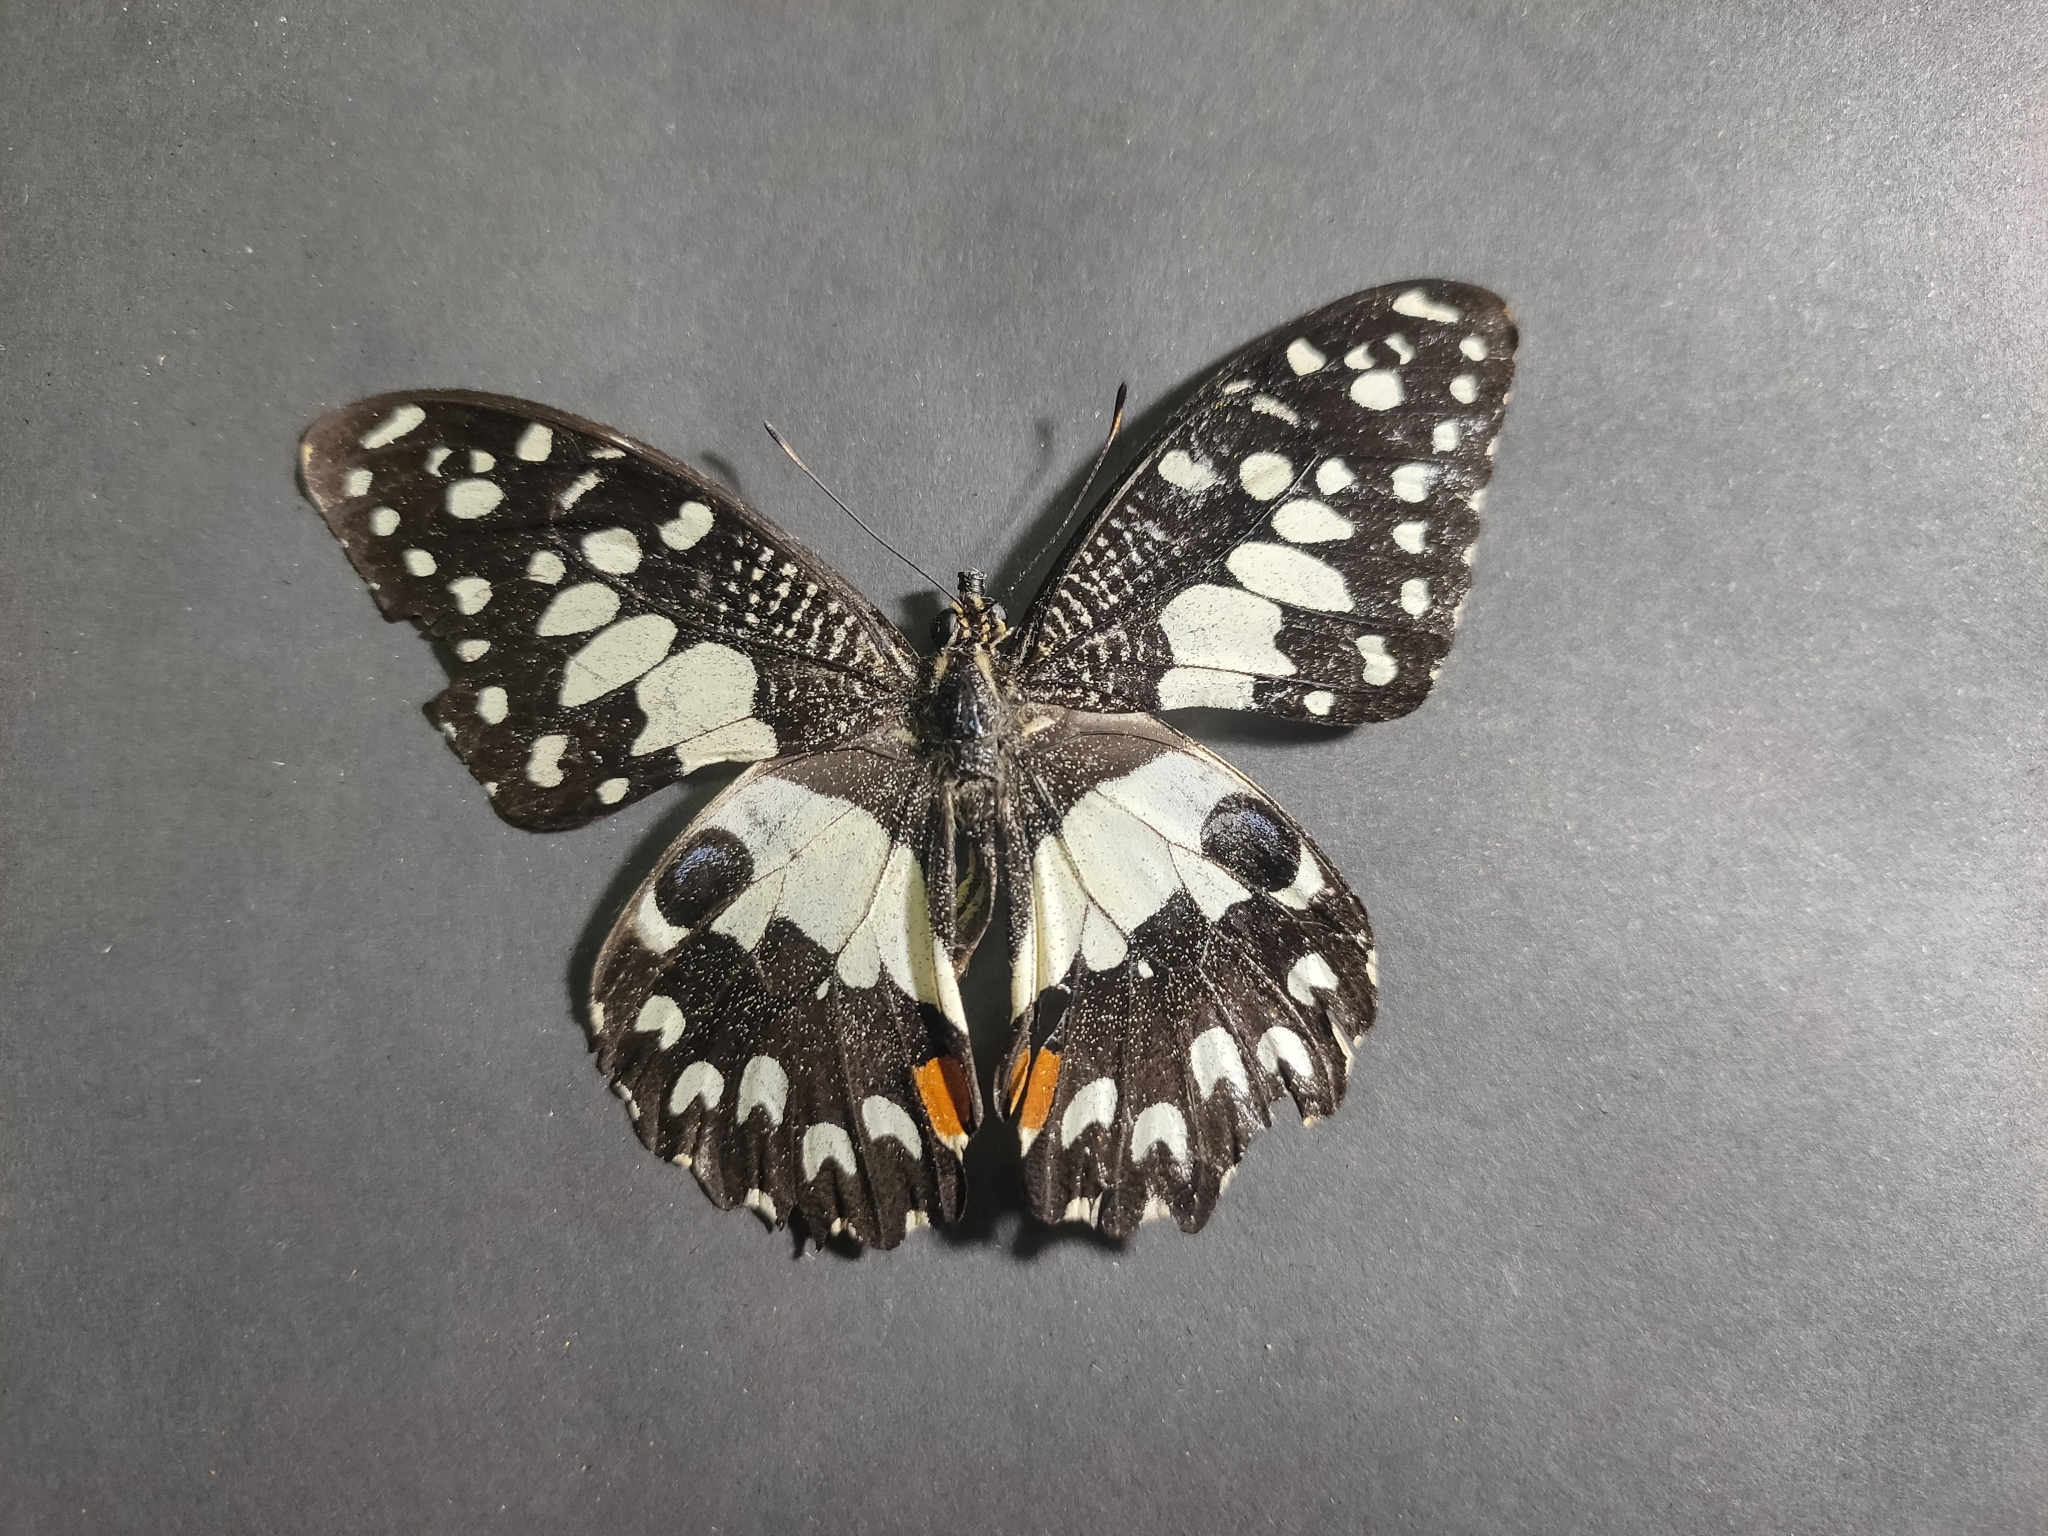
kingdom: Animalia
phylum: Arthropoda
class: Insecta
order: Lepidoptera
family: Papilionidae
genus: Papilio
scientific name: Papilio demoleus
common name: Lime butterfly
